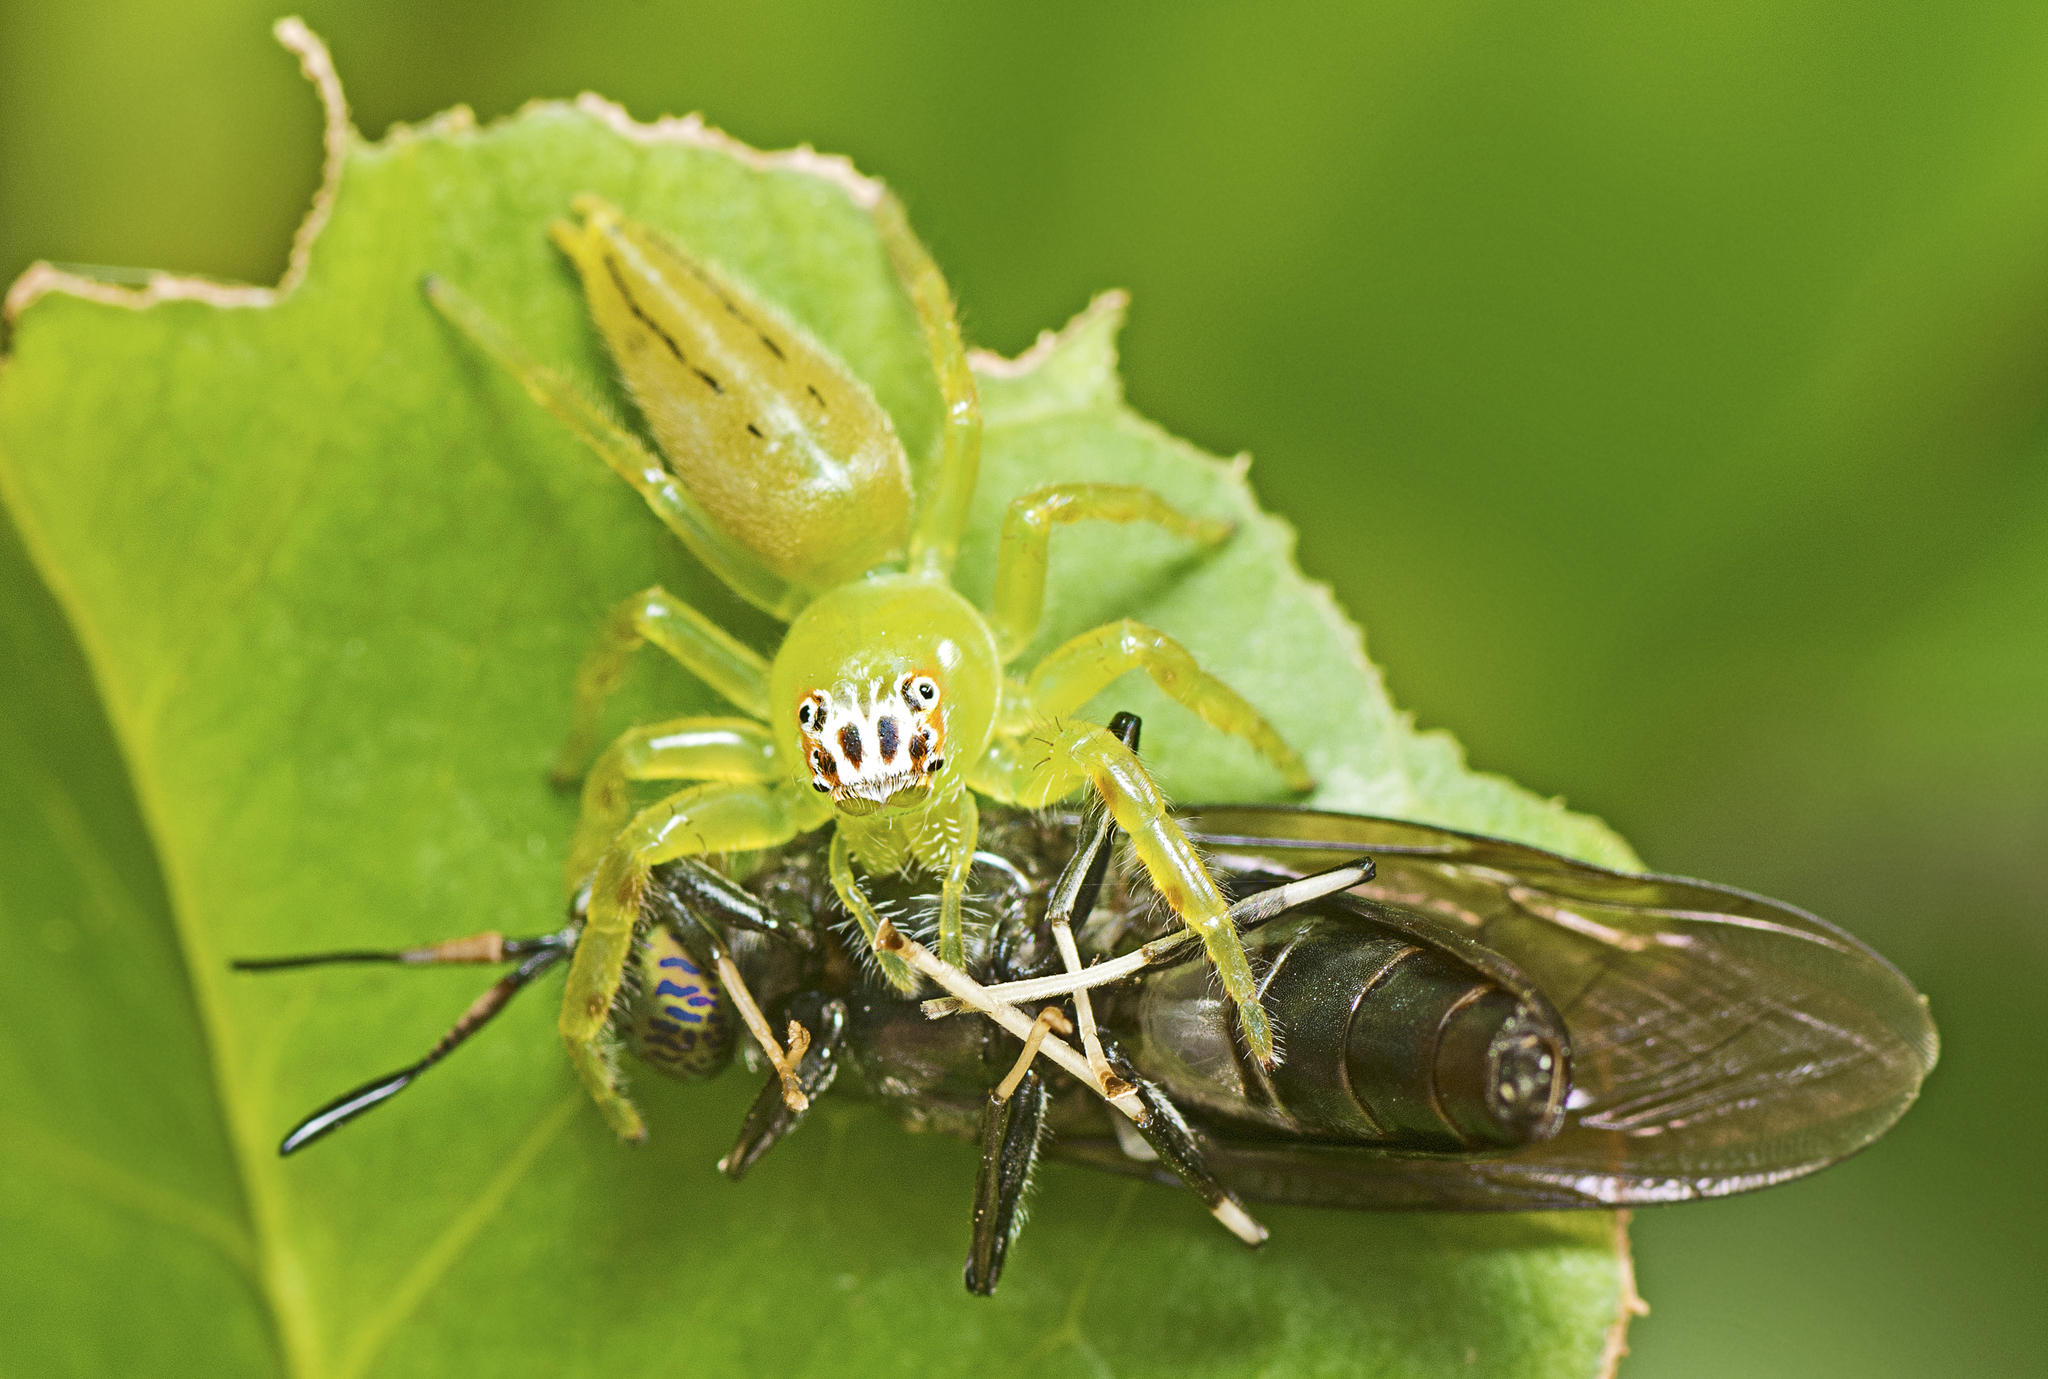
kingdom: Animalia
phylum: Arthropoda
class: Arachnida
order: Araneae
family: Salticidae
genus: Mopsus
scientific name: Mopsus mormon
